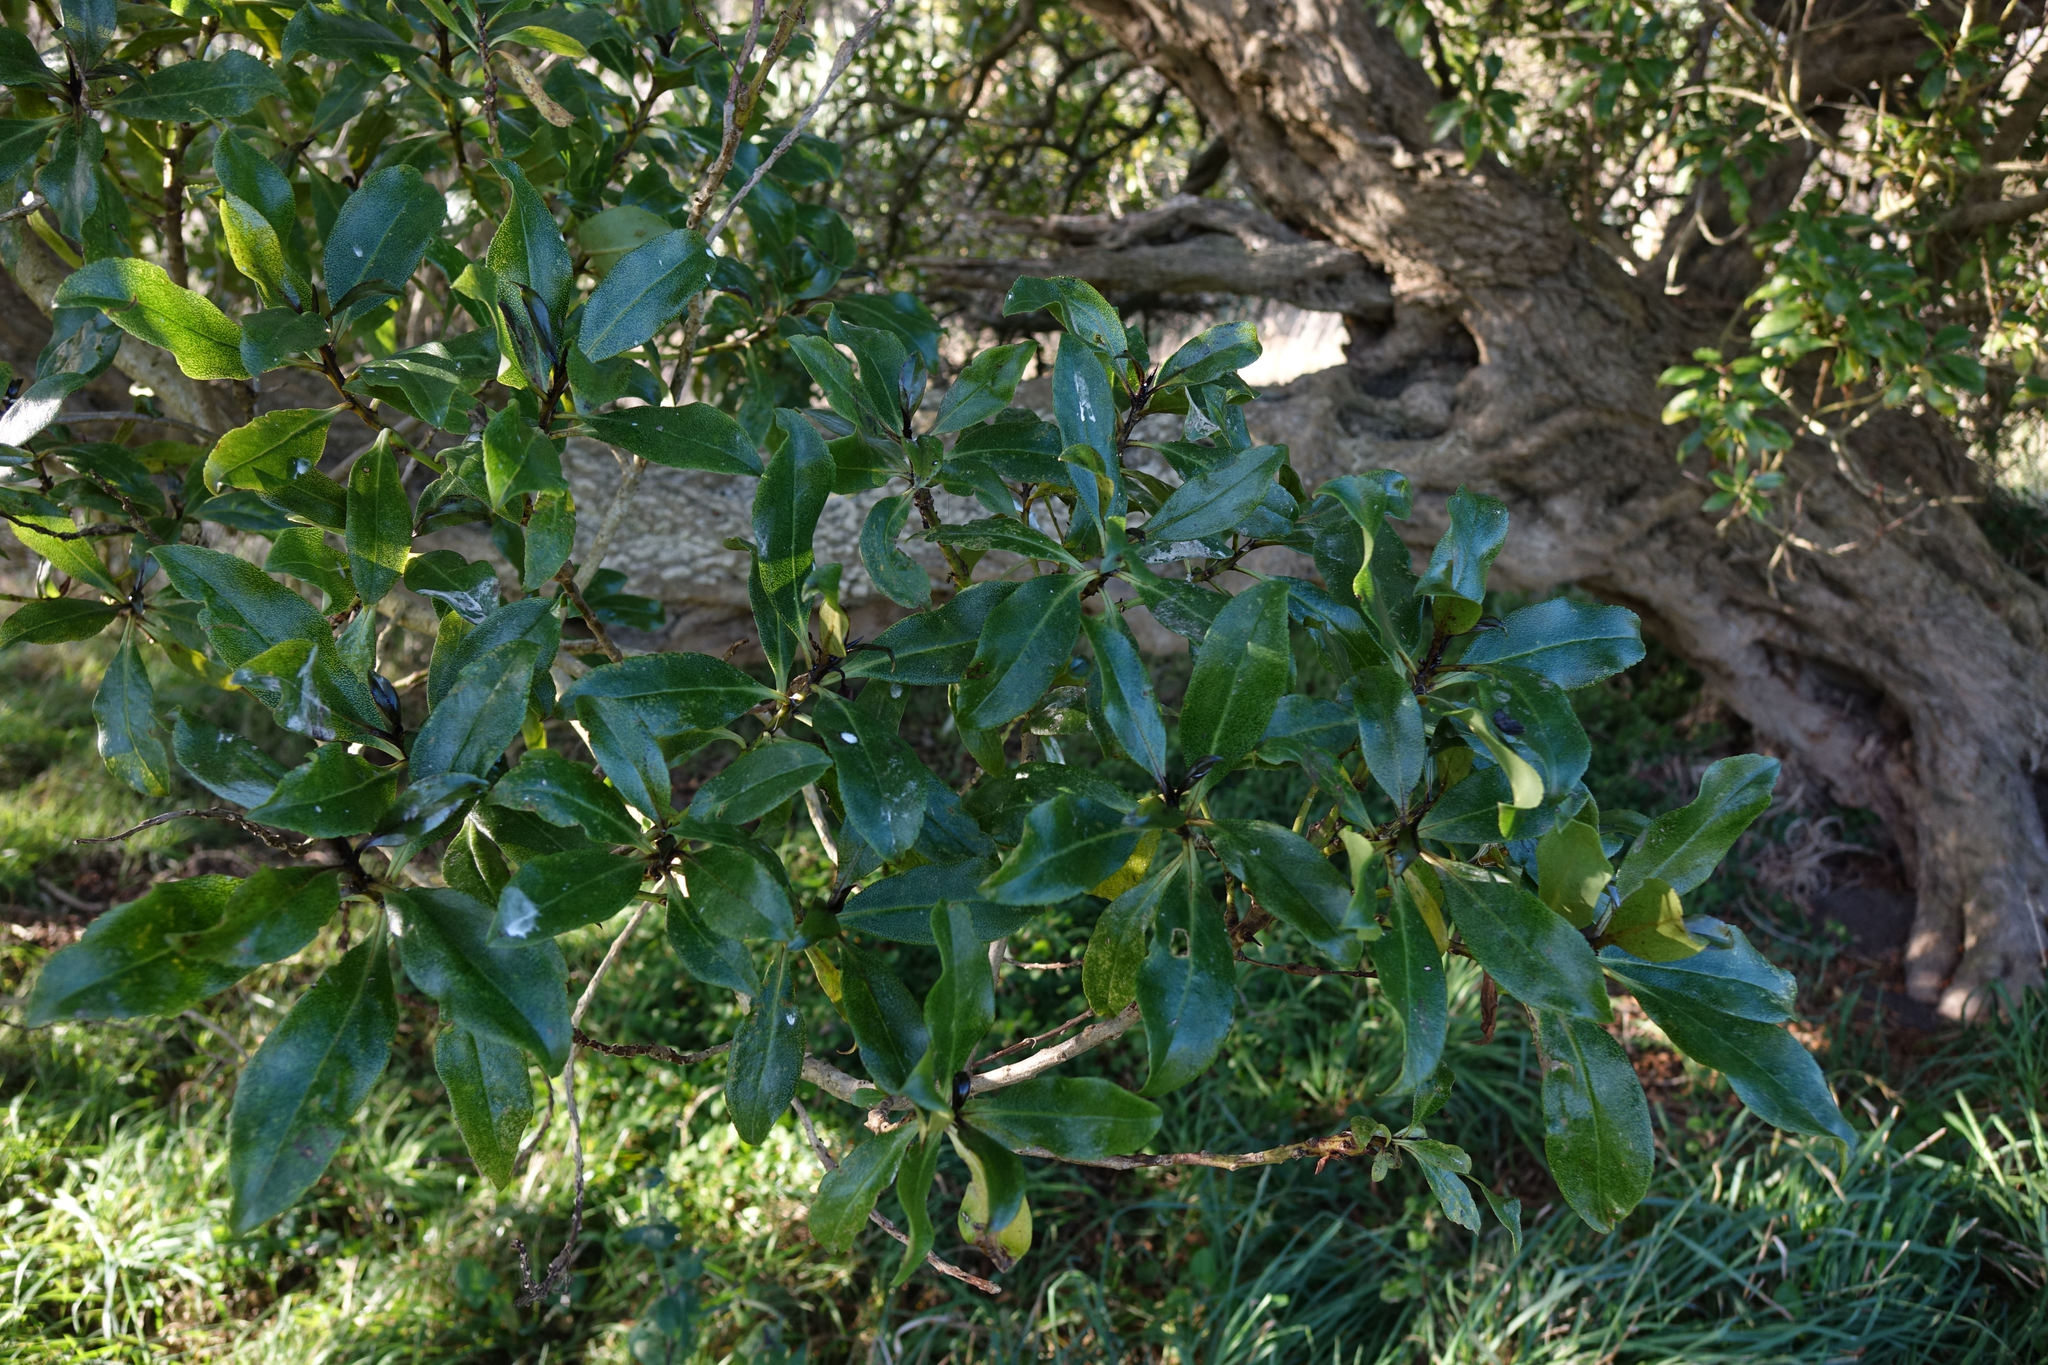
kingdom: Plantae
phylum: Tracheophyta
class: Magnoliopsida
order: Lamiales
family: Scrophulariaceae
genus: Myoporum
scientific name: Myoporum laetum
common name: Ngaio tree
